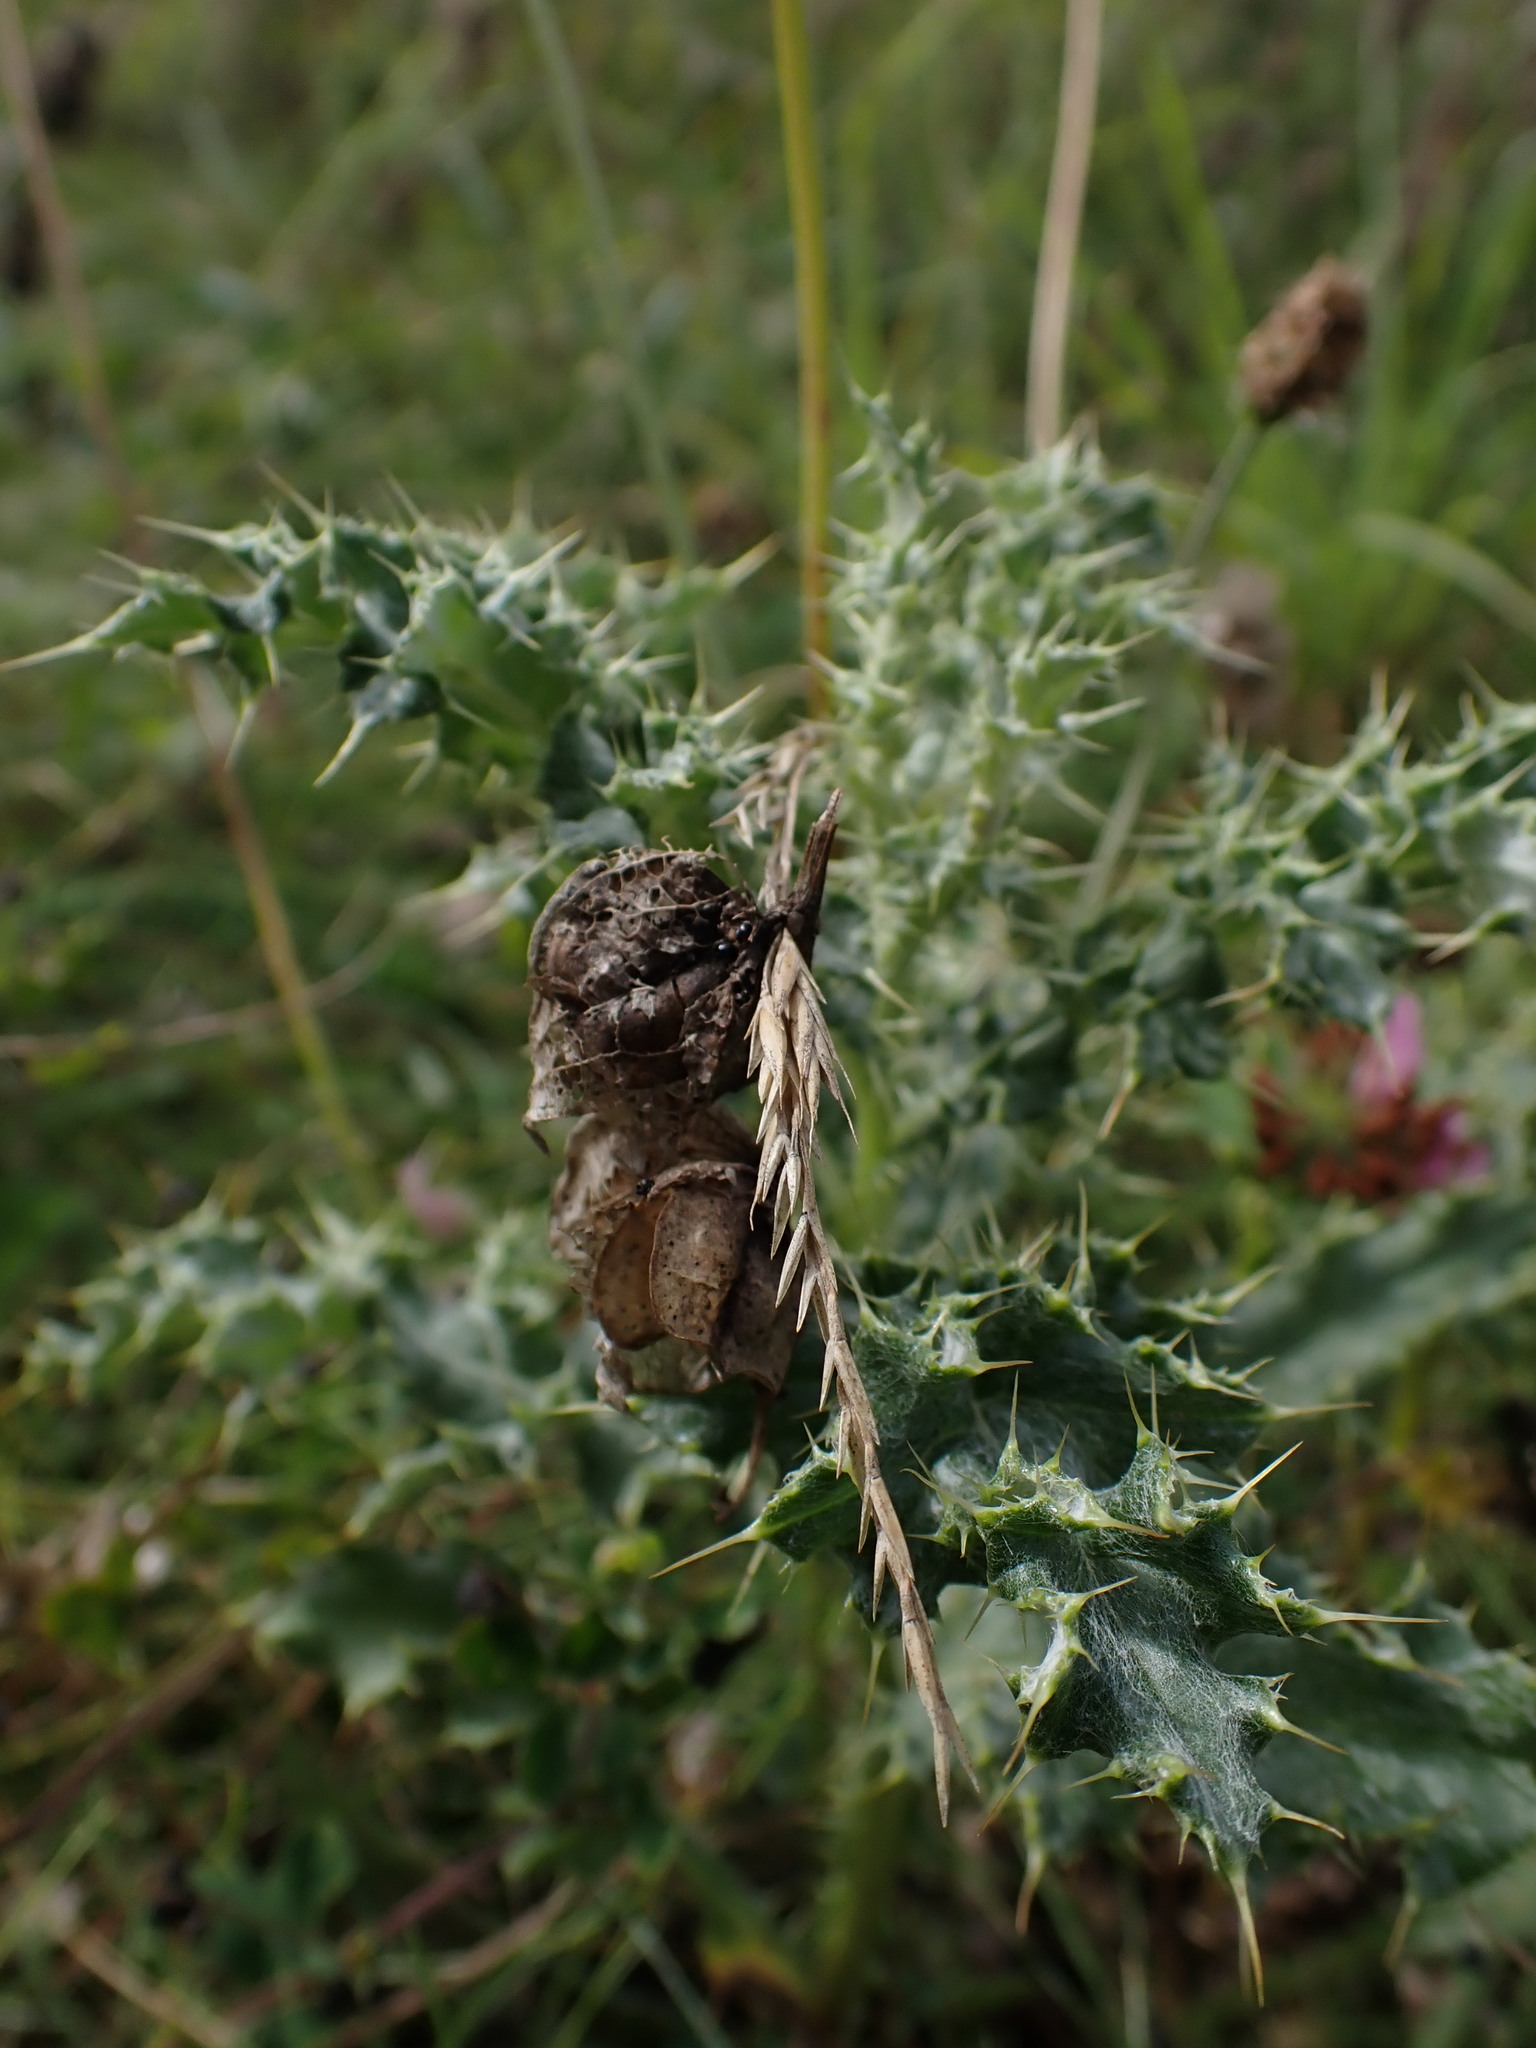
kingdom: Plantae
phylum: Tracheophyta
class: Magnoliopsida
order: Asterales
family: Asteraceae
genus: Cirsium
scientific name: Cirsium arvense
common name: Creeping thistle
